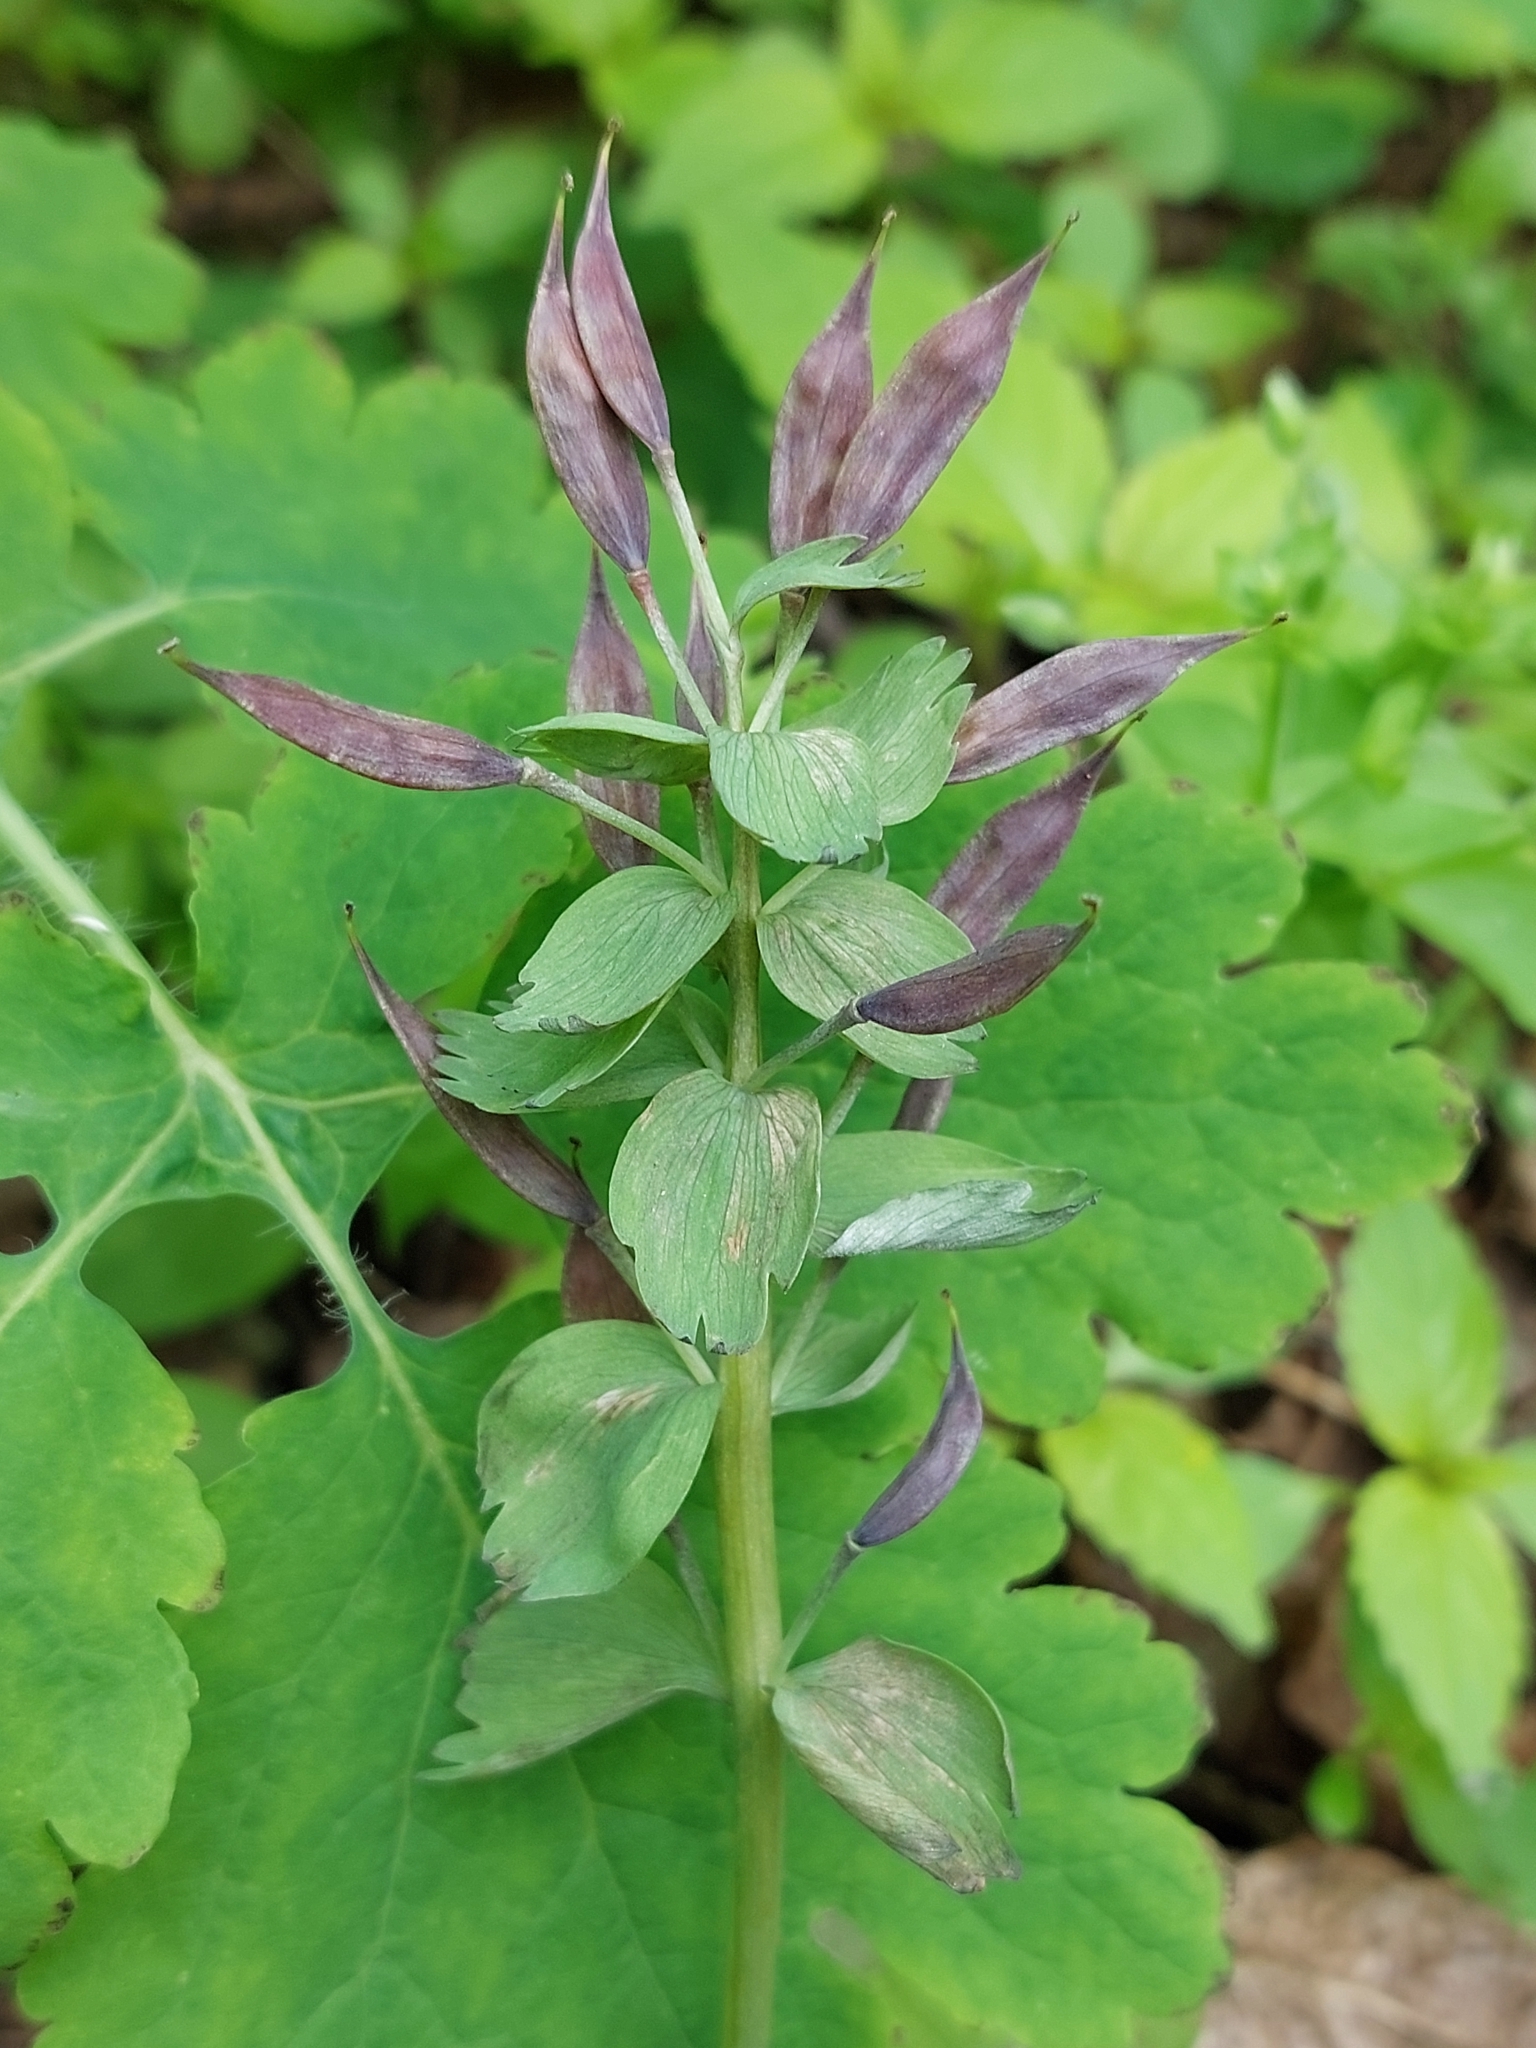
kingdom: Plantae
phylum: Tracheophyta
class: Magnoliopsida
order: Ranunculales
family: Papaveraceae
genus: Corydalis
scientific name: Corydalis solida
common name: Bird-in-a-bush
